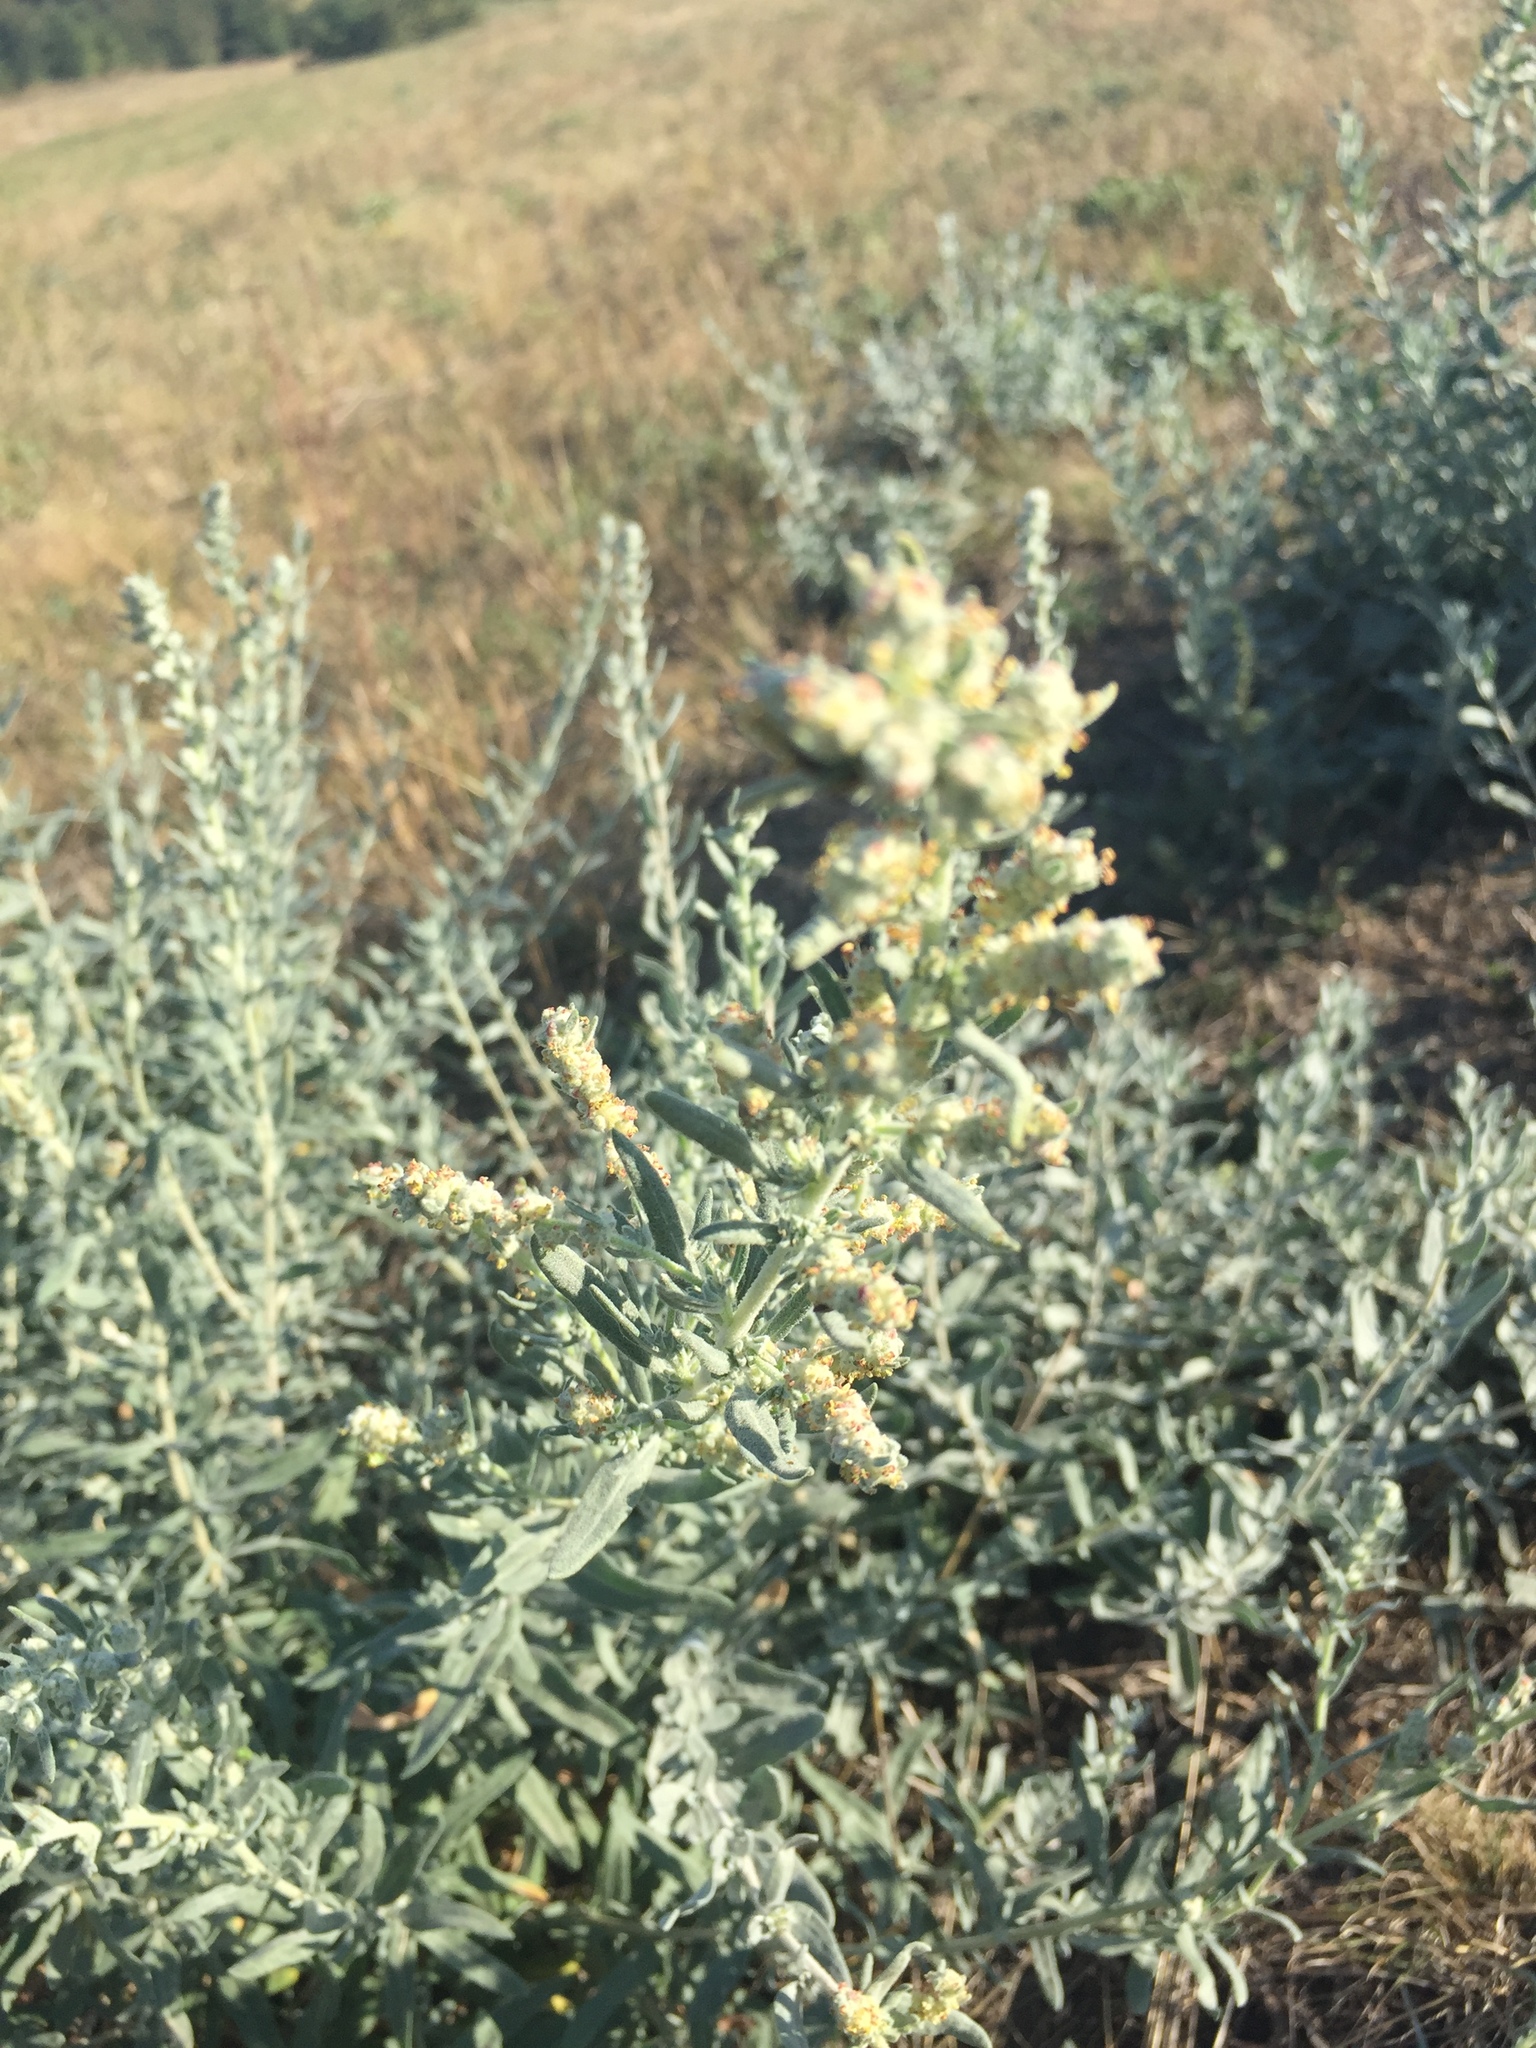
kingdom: Plantae
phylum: Tracheophyta
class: Magnoliopsida
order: Caryophyllales
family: Amaranthaceae
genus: Krascheninnikovia
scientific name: Krascheninnikovia ceratoides
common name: Pamirian winterfat
